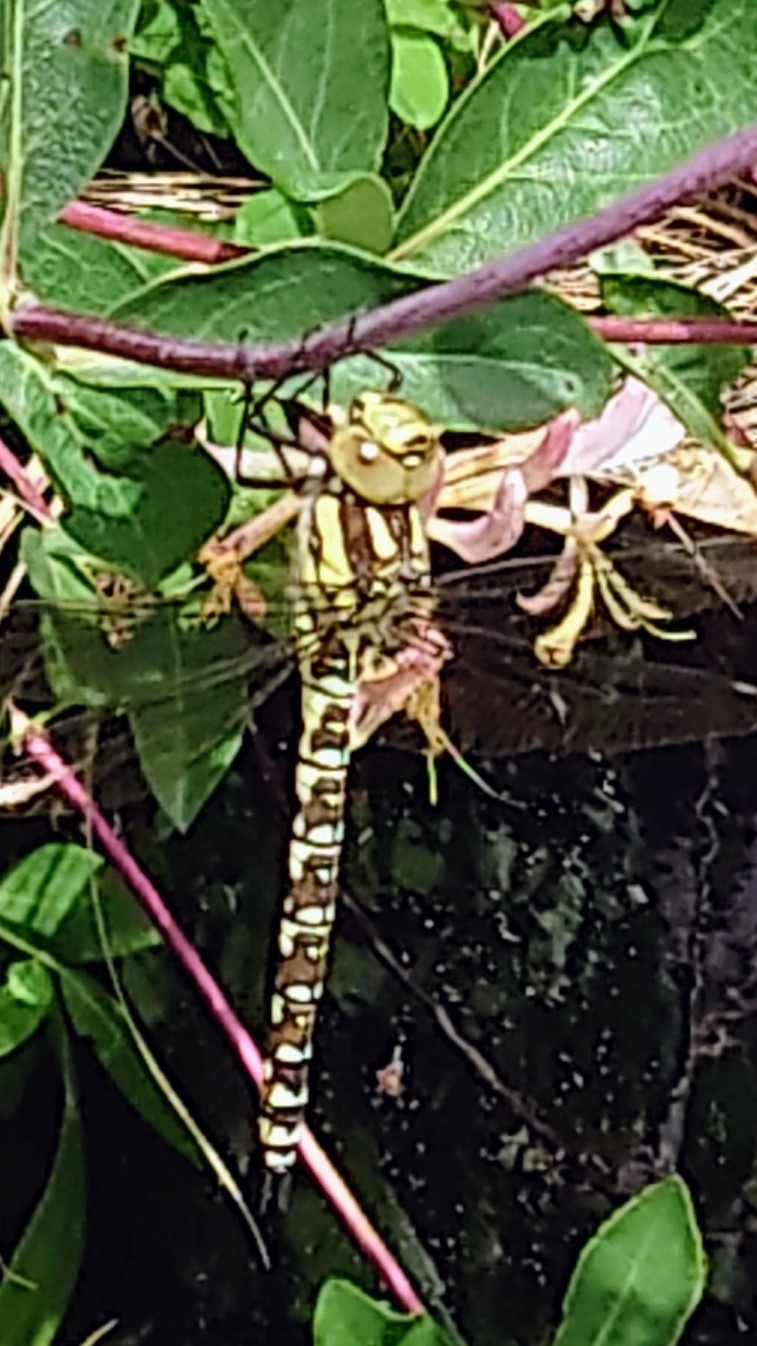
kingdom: Animalia
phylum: Arthropoda
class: Insecta
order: Odonata
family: Aeshnidae
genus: Aeshna
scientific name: Aeshna cyanea
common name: Southern hawker
